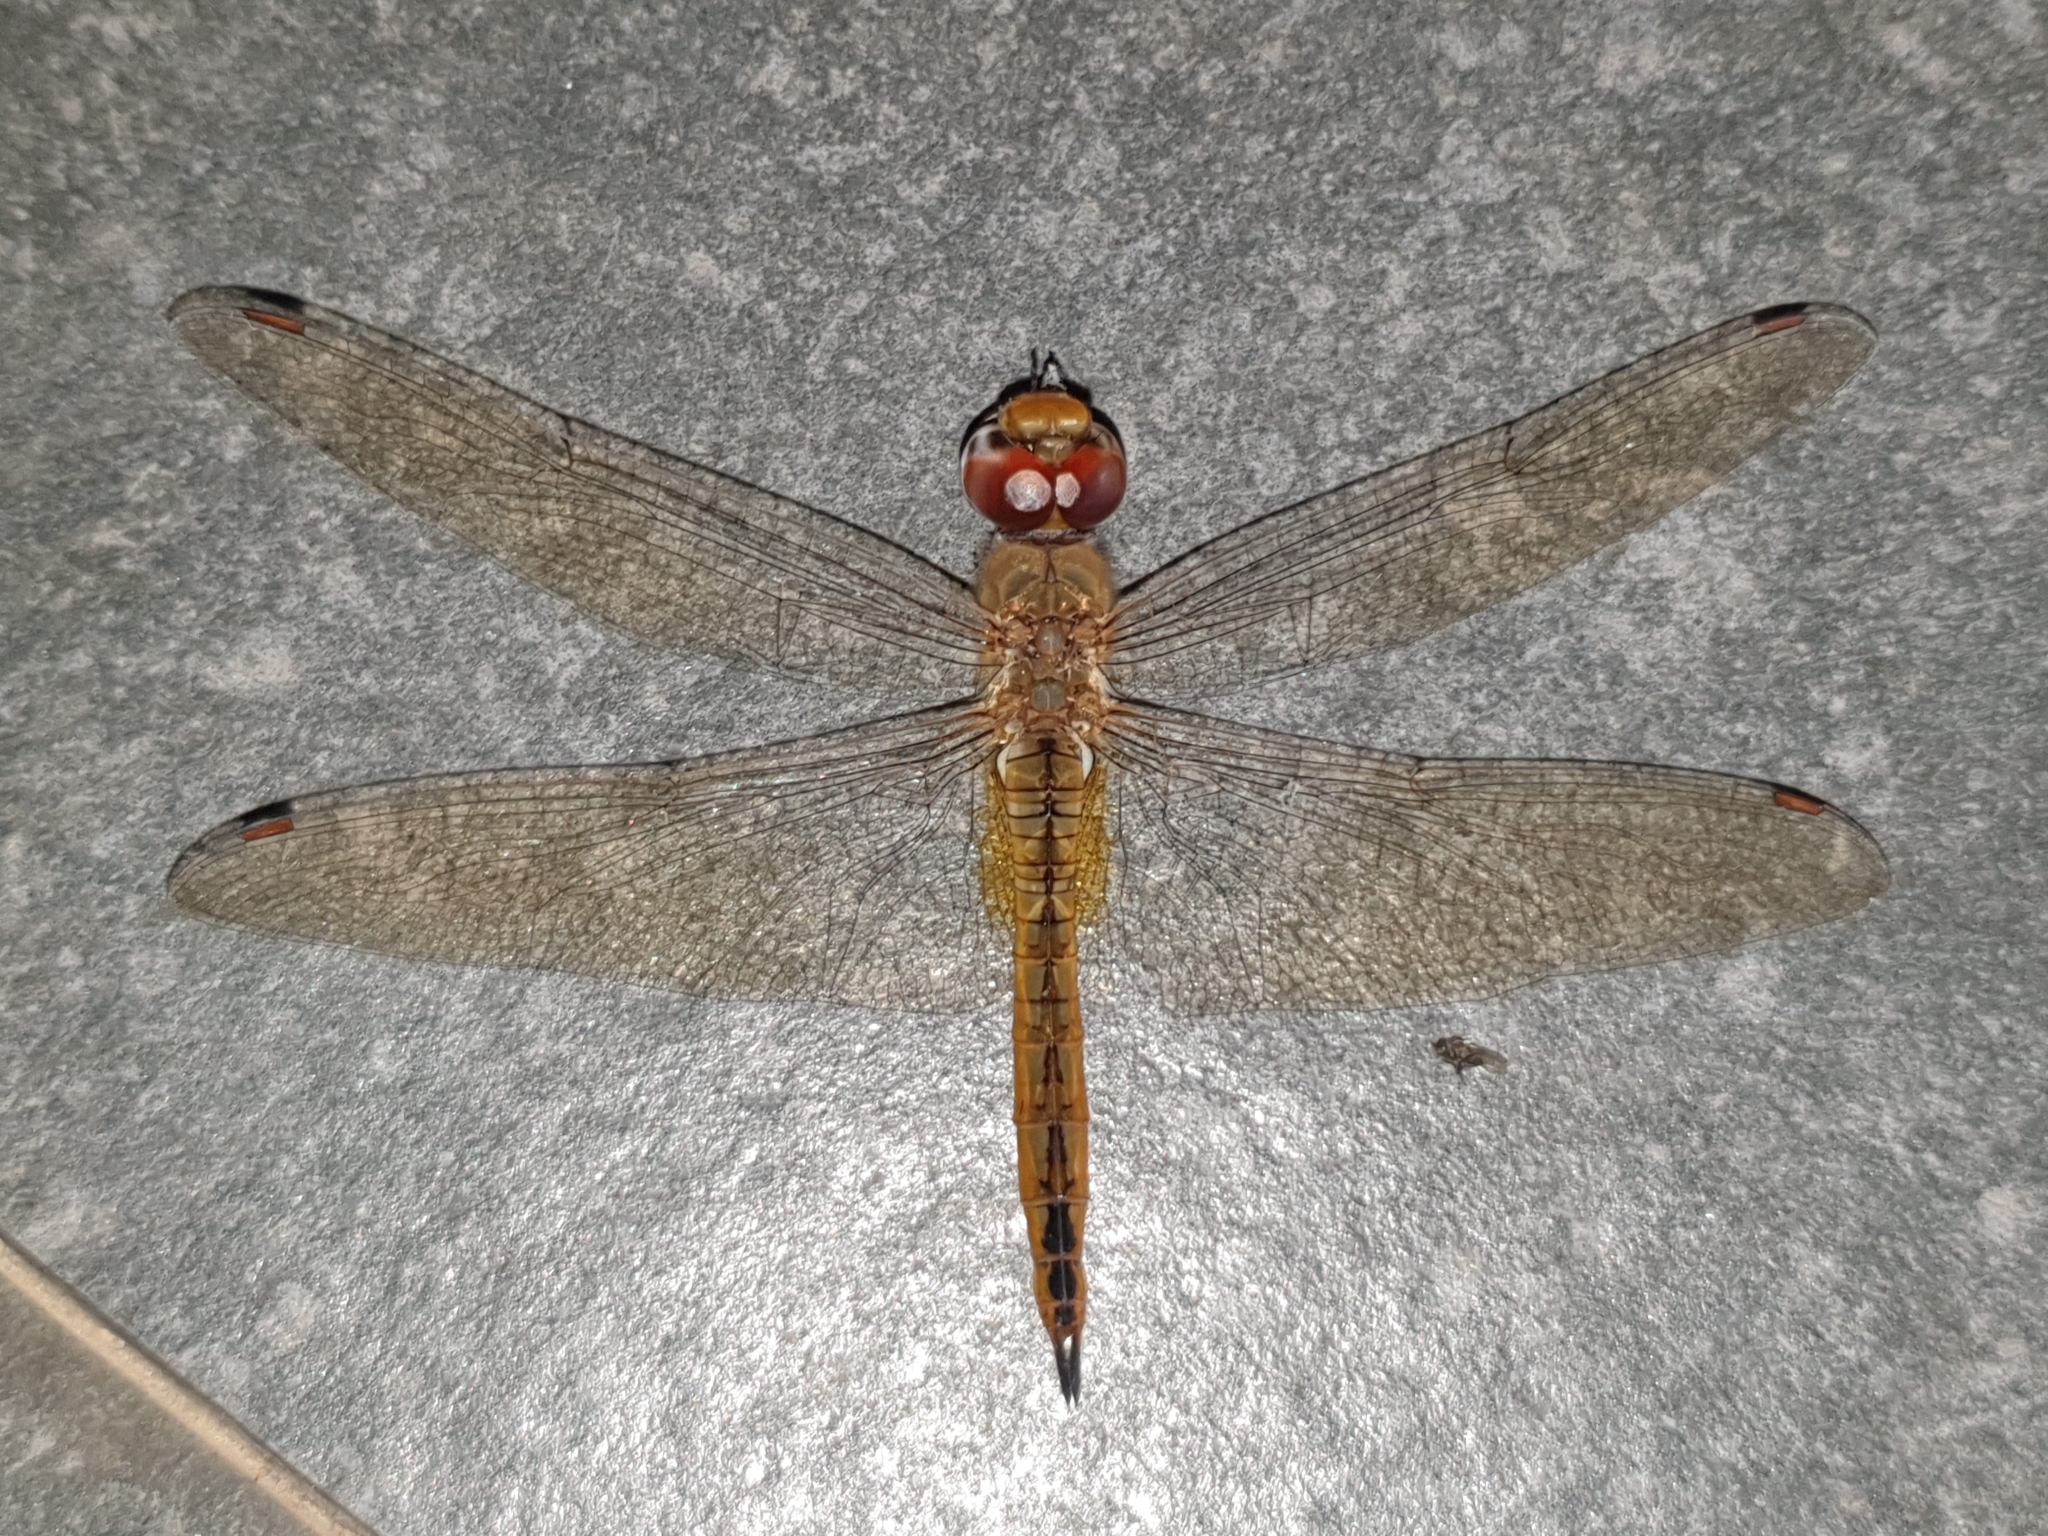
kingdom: Animalia
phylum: Arthropoda
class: Insecta
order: Odonata
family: Libellulidae
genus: Pantala
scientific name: Pantala flavescens
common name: Wandering glider
